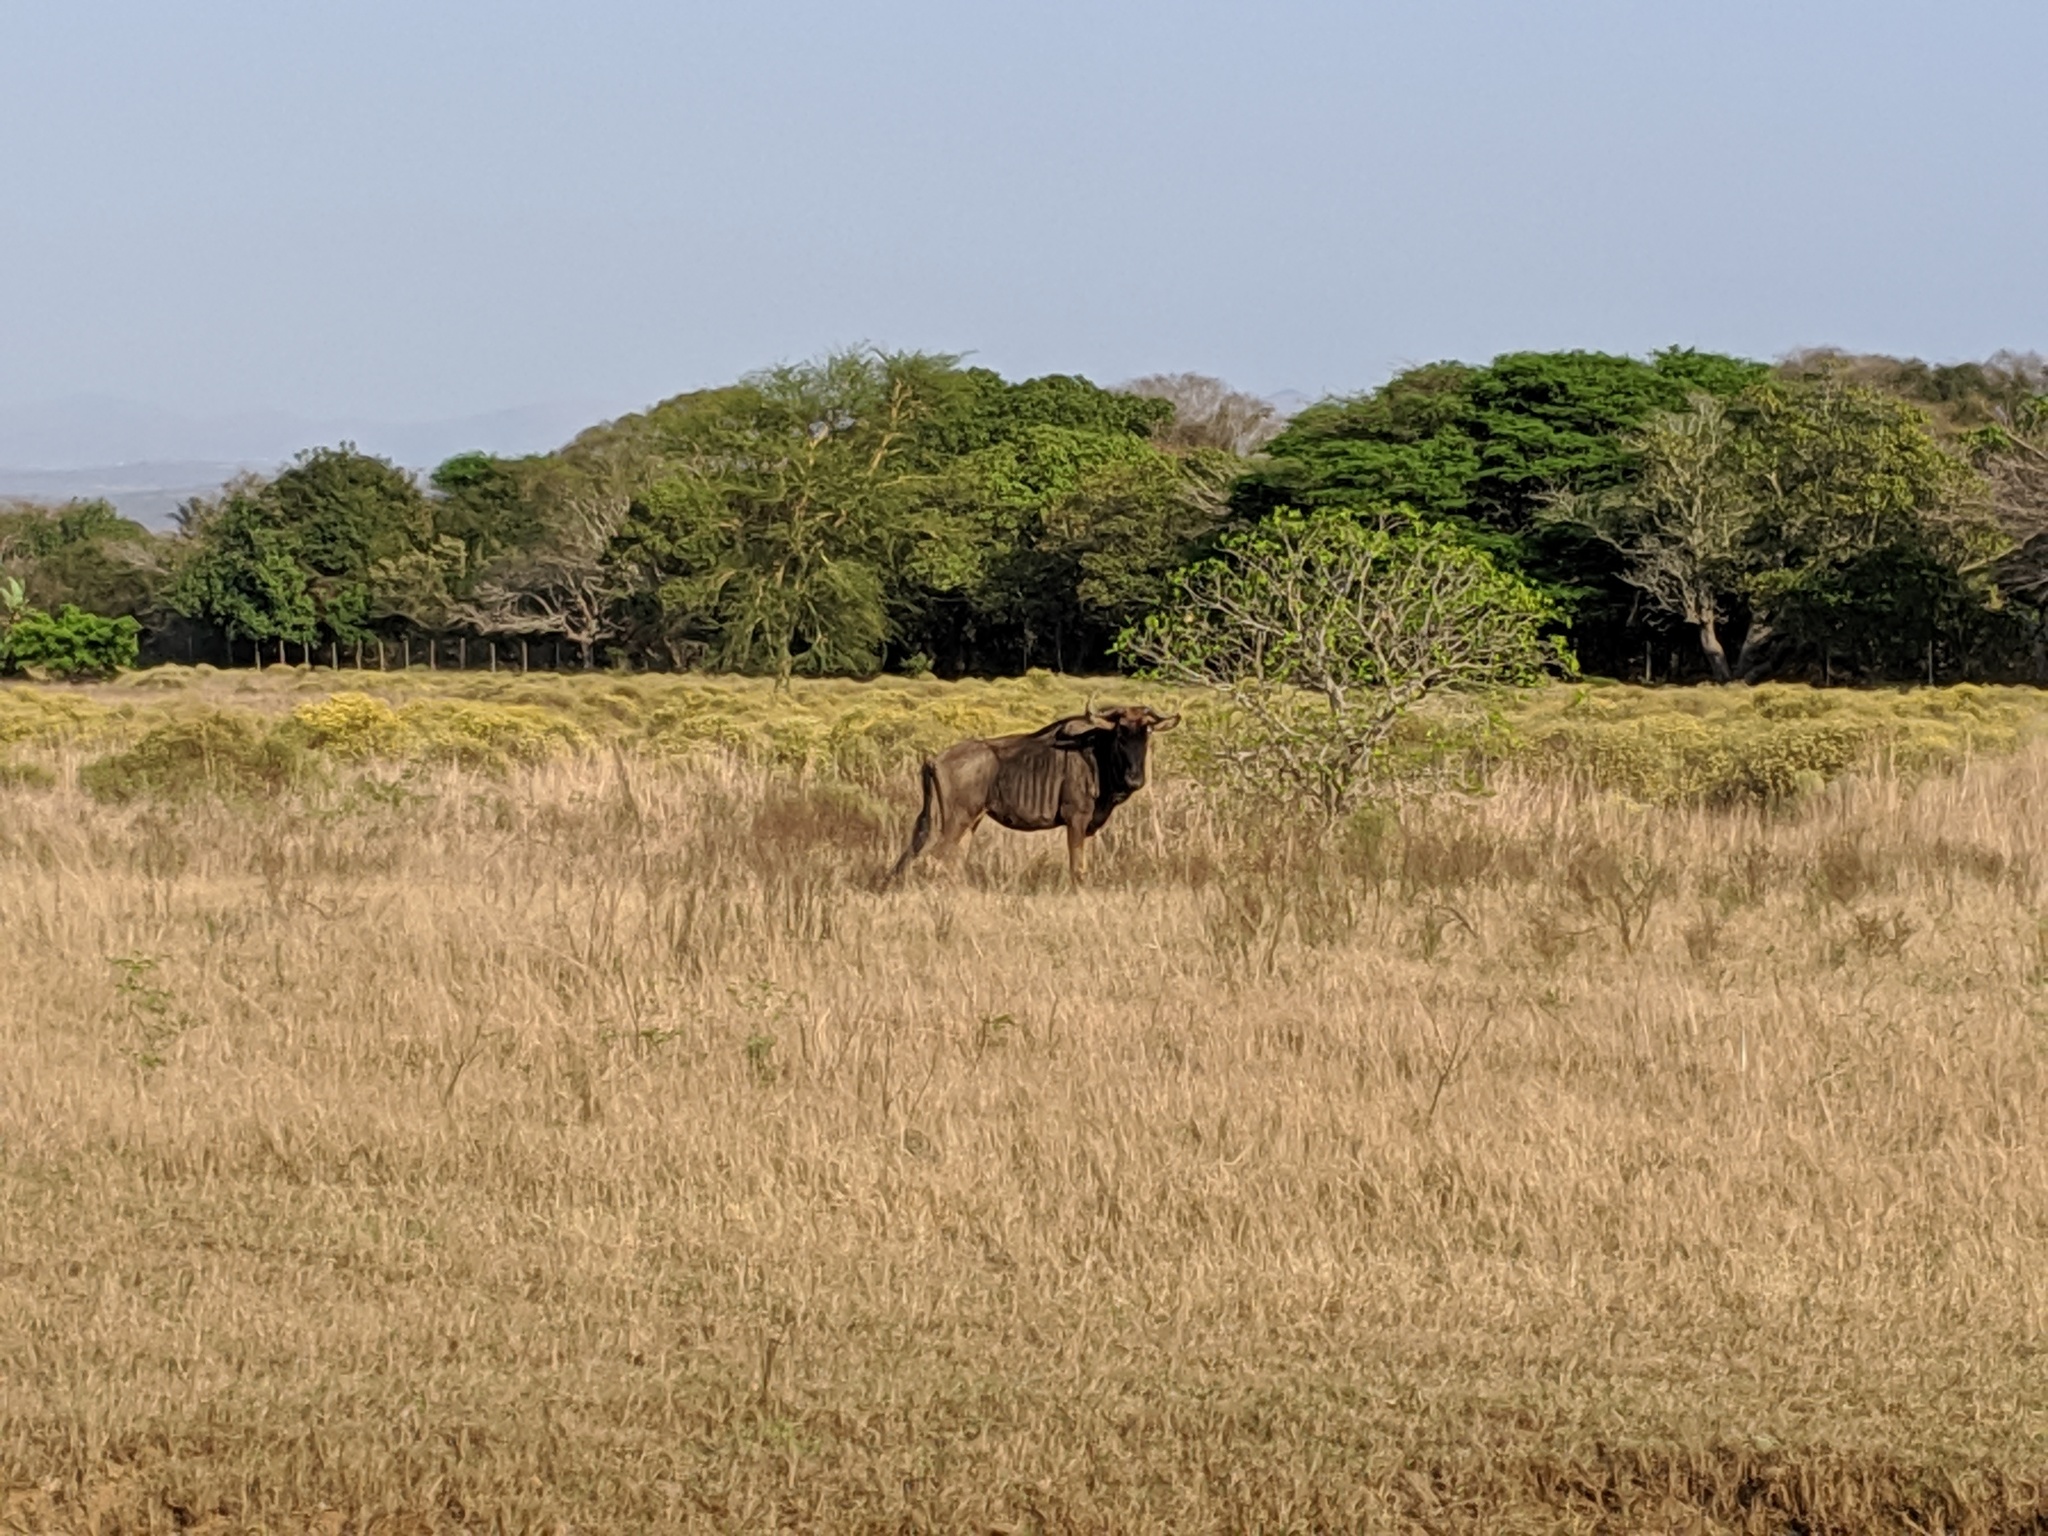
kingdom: Animalia
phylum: Chordata
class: Mammalia
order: Artiodactyla
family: Bovidae
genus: Connochaetes
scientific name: Connochaetes taurinus
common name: Blue wildebeest
